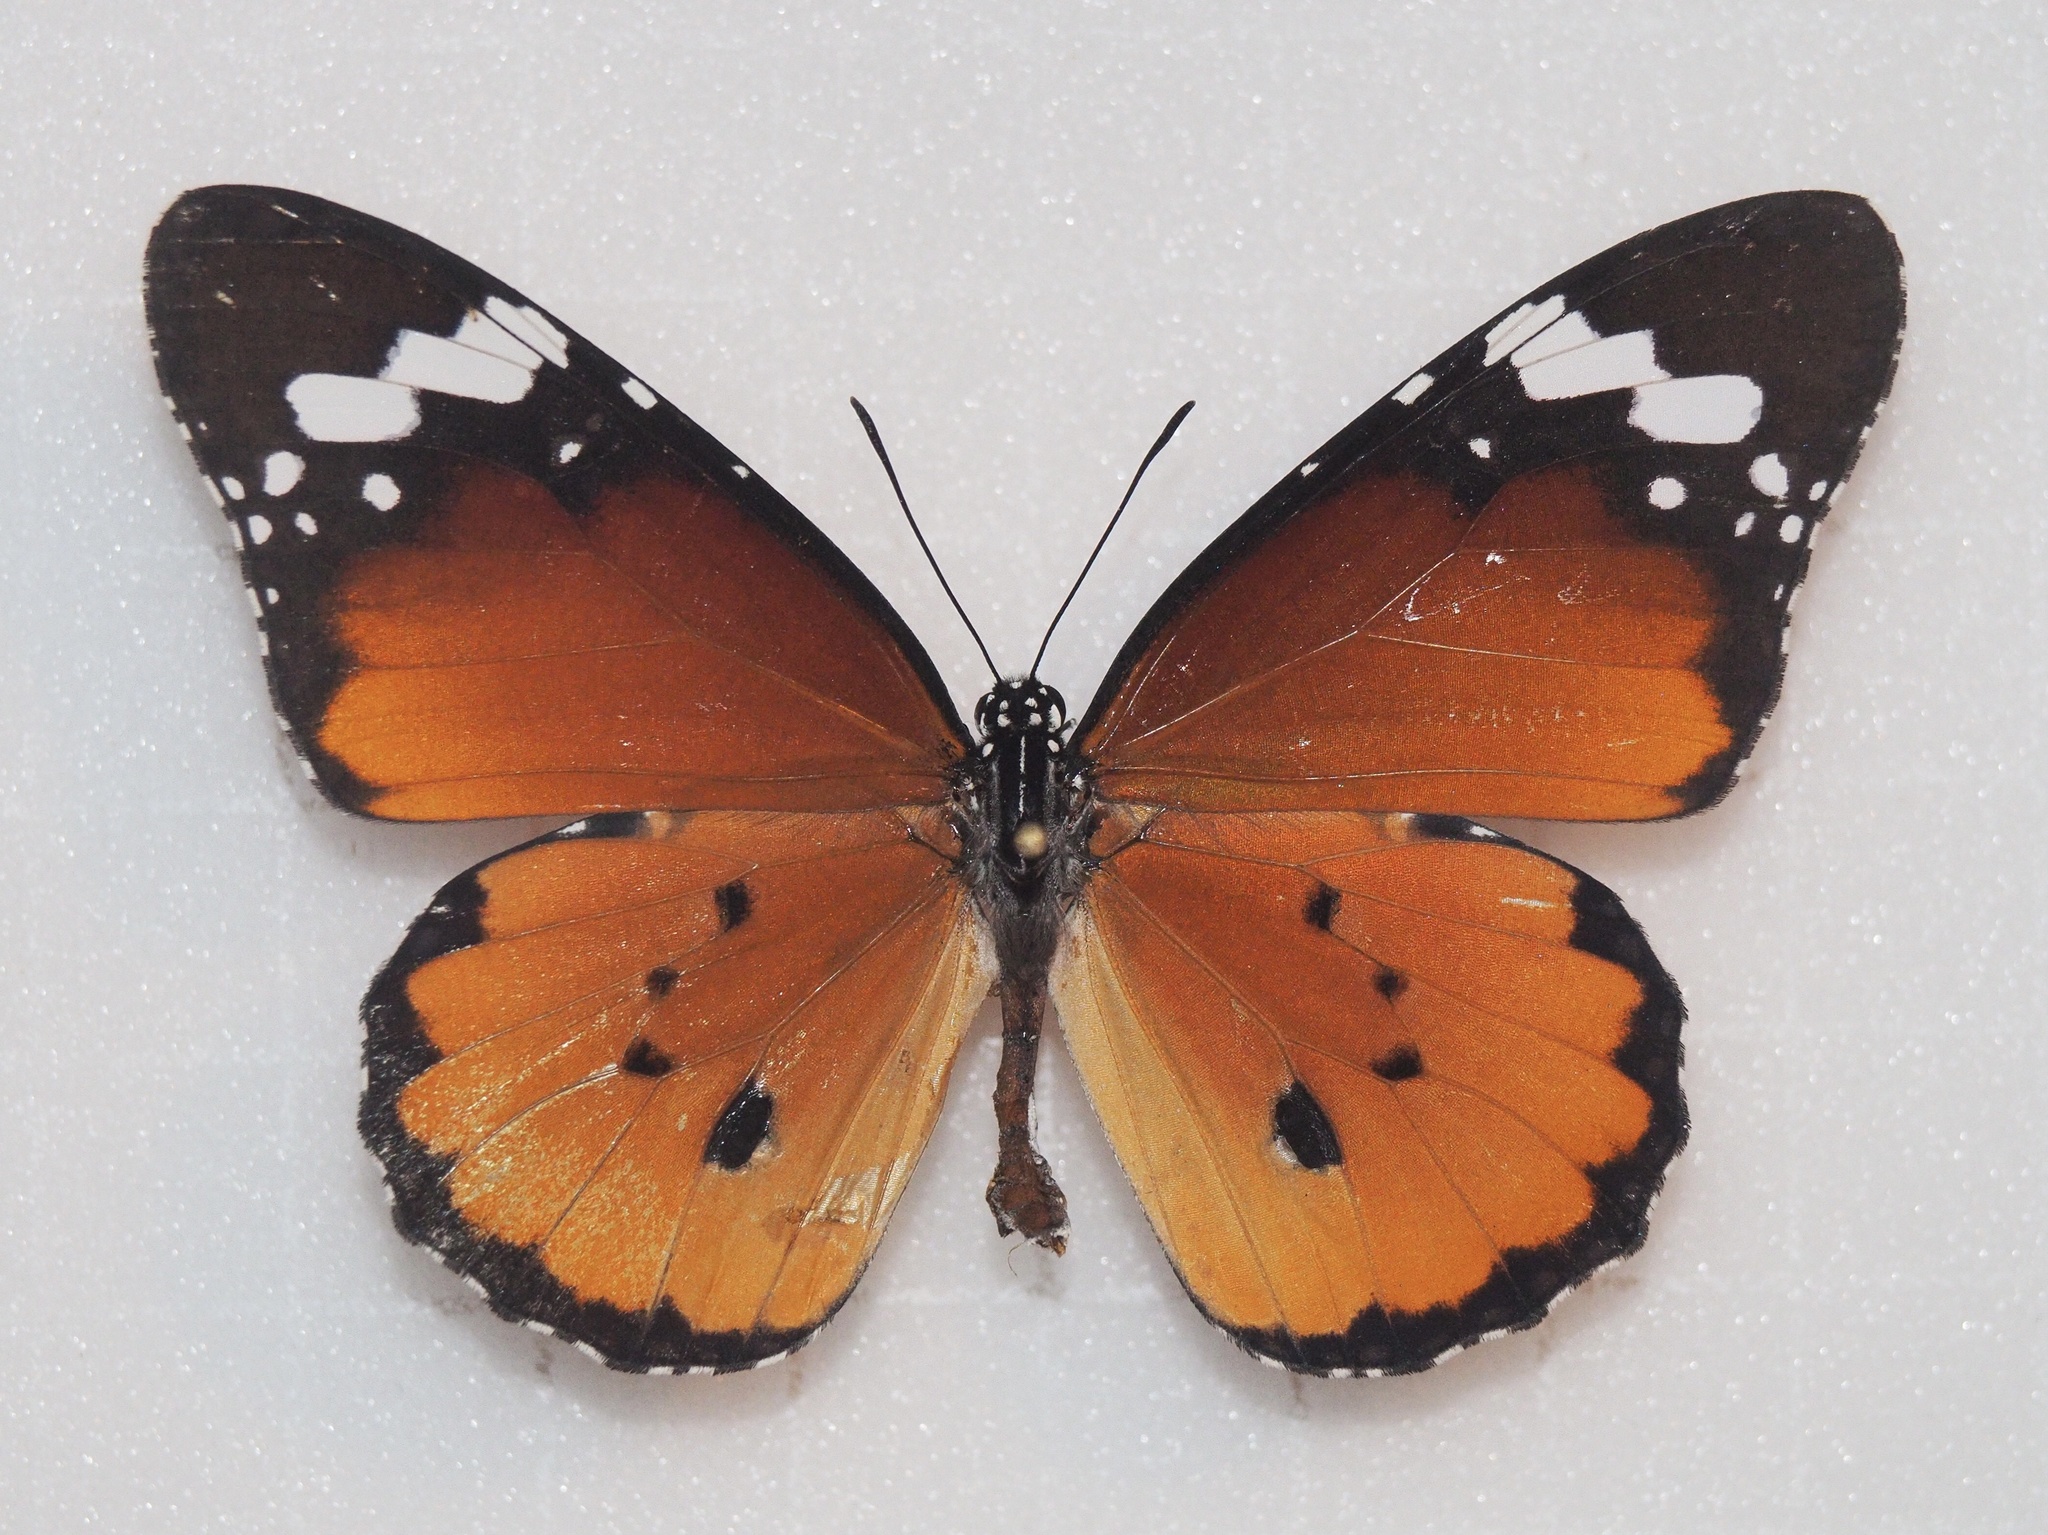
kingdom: Animalia
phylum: Arthropoda
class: Insecta
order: Lepidoptera
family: Nymphalidae
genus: Danaus
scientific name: Danaus chrysippus
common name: Plain tiger
